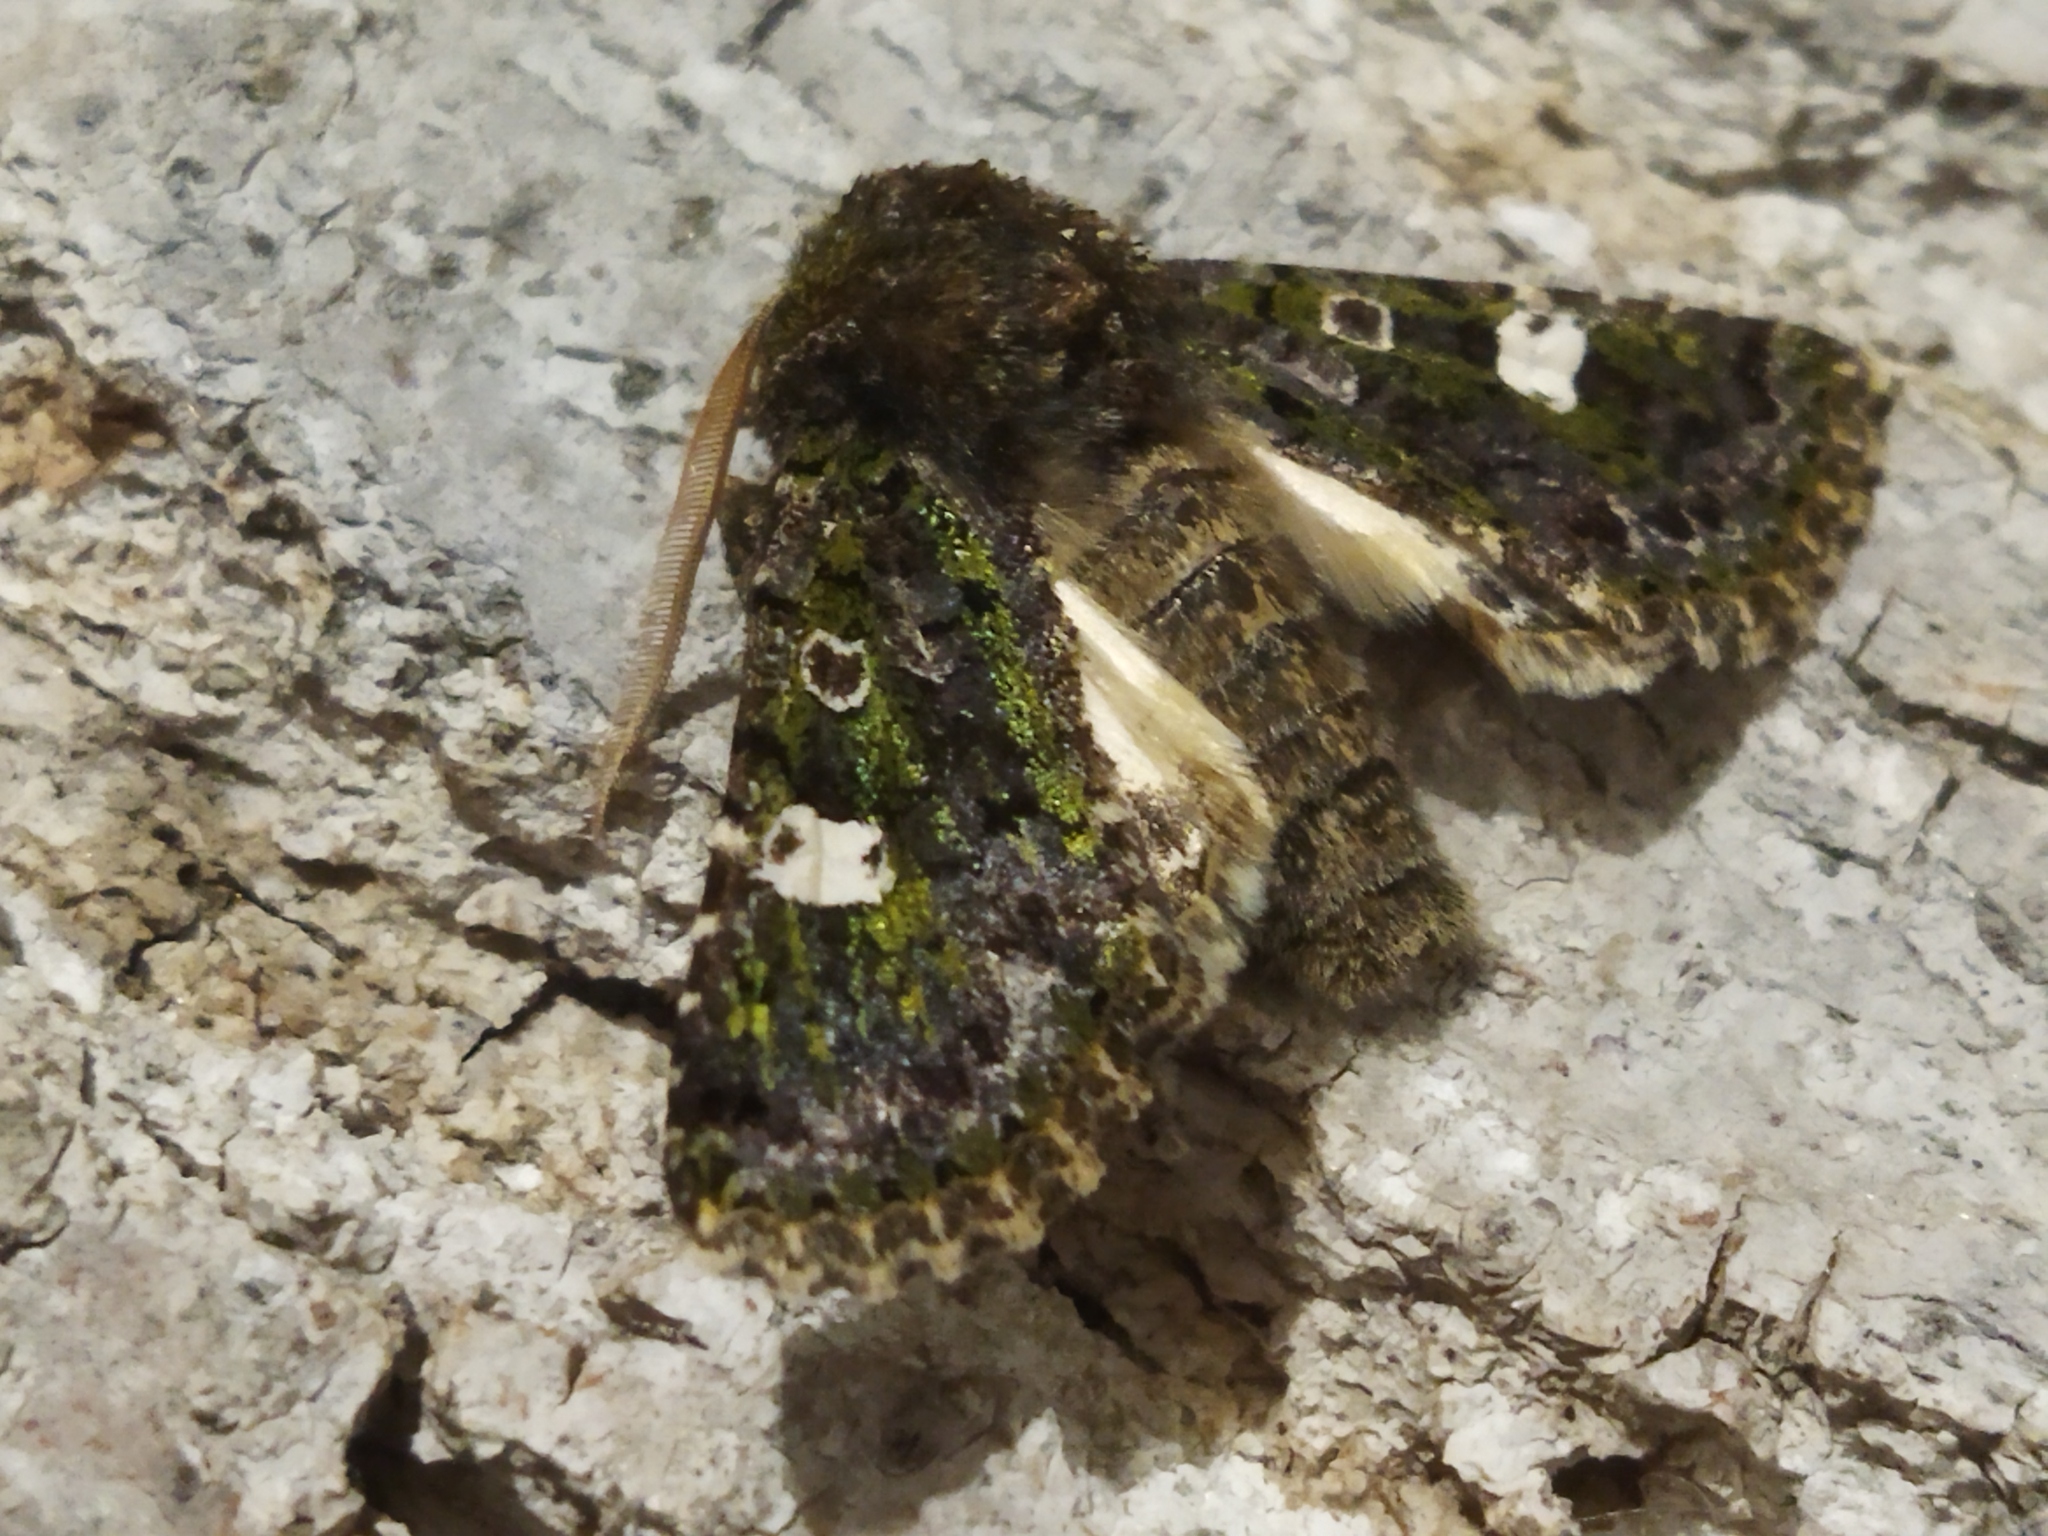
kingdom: Animalia
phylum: Arthropoda
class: Insecta
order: Lepidoptera
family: Noctuidae
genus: Valeria
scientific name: Valeria oleagina
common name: Green-brindled dot
